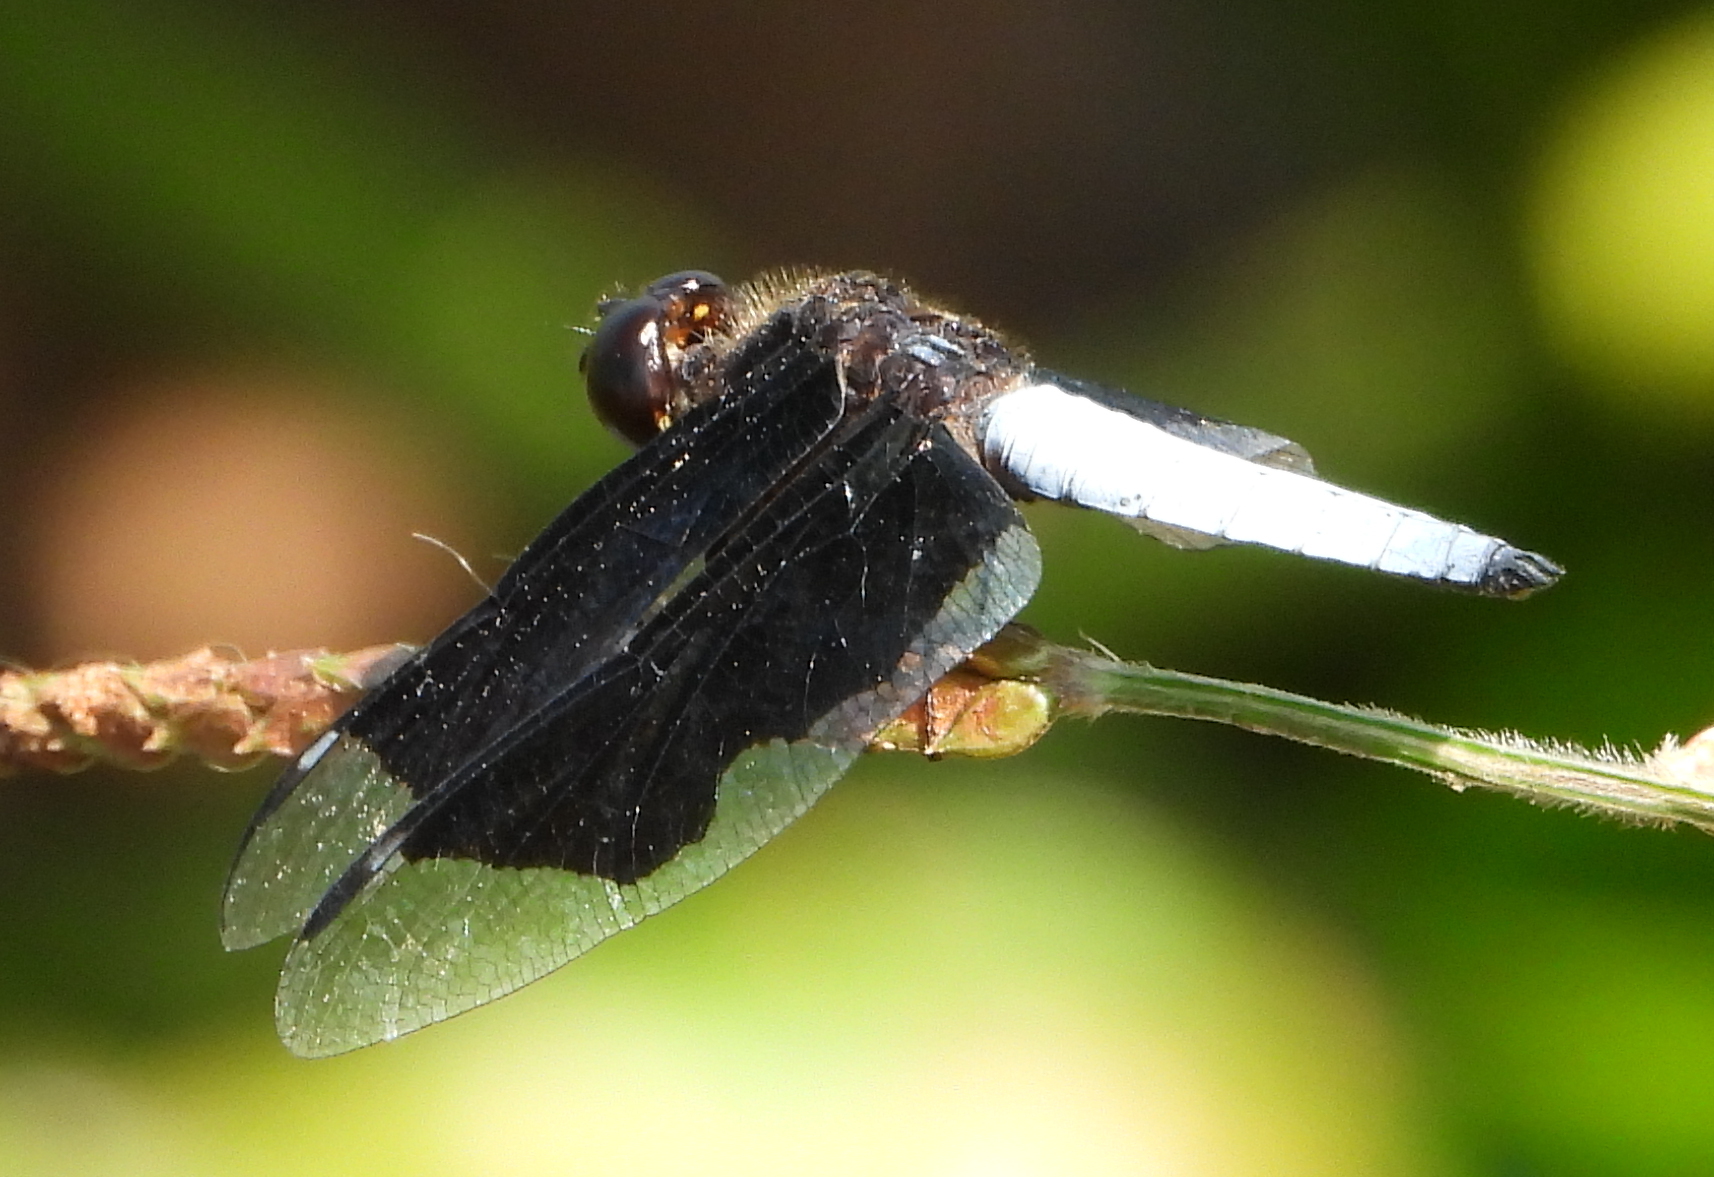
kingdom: Animalia
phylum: Arthropoda
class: Insecta
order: Odonata
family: Libellulidae
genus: Palpopleura
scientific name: Palpopleura lucia
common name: Lucia widow
